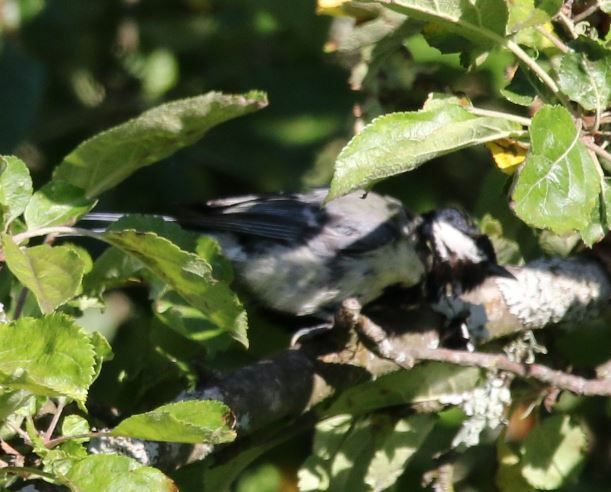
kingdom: Animalia
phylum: Chordata
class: Aves
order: Passeriformes
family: Paridae
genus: Parus
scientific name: Parus major
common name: Great tit
